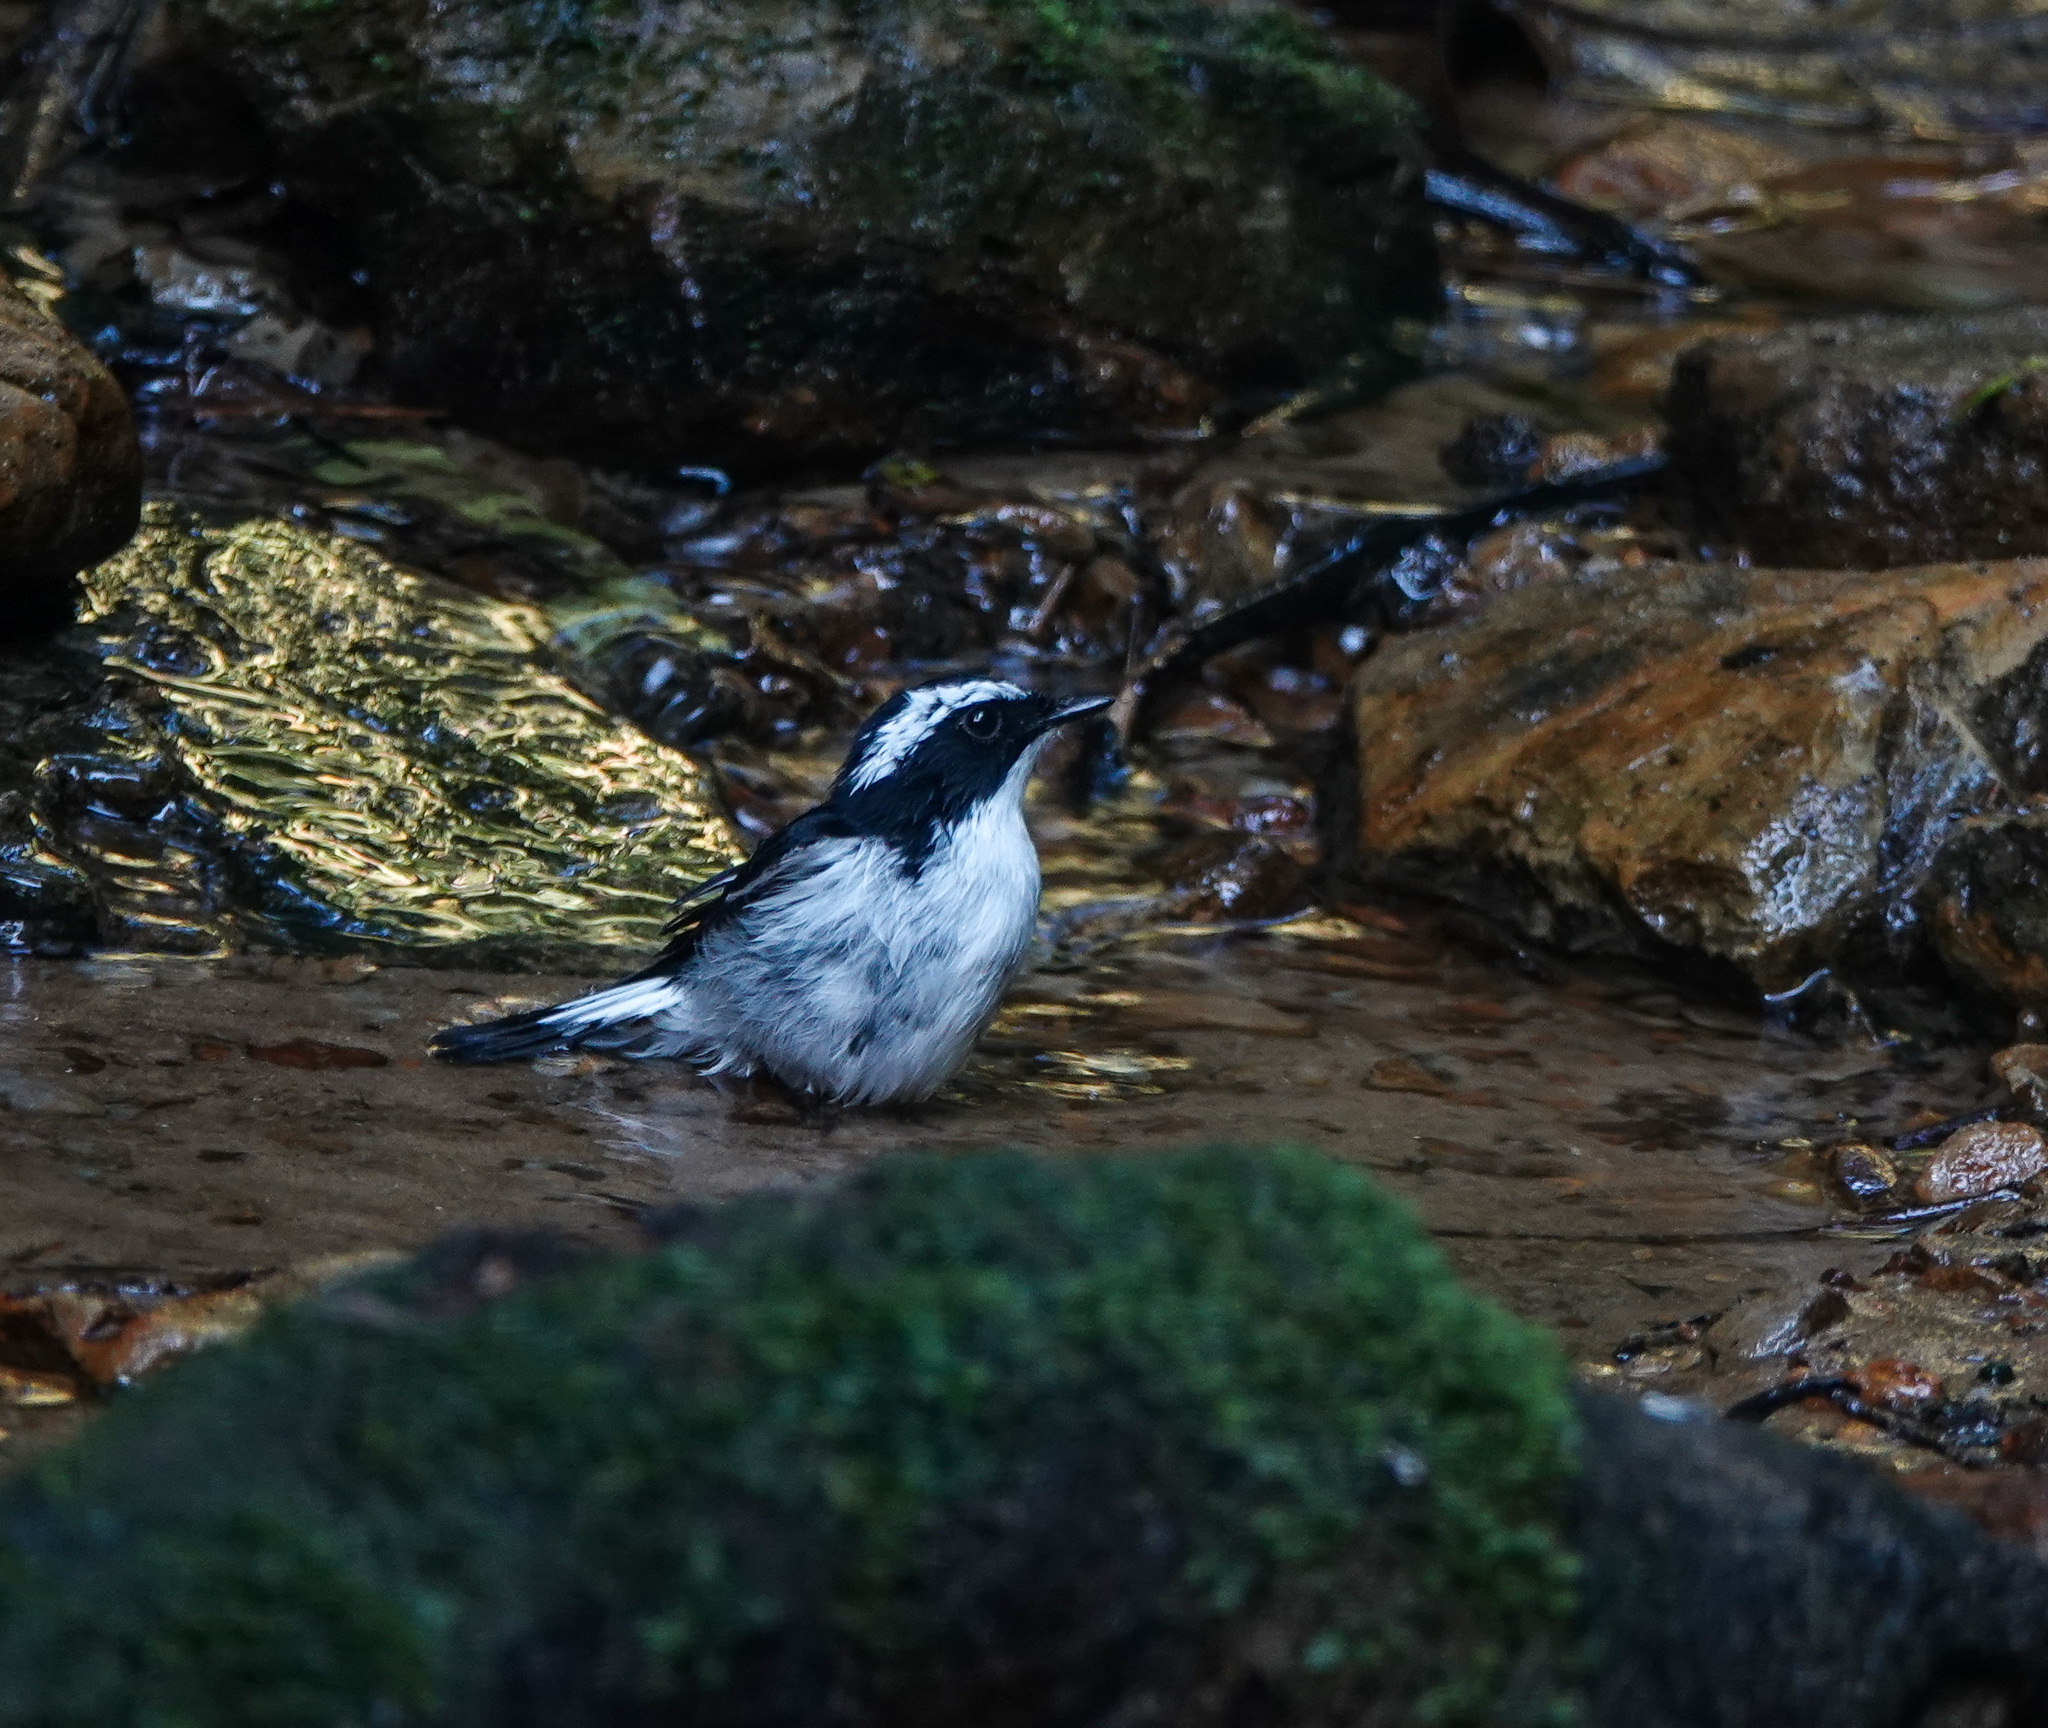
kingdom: Animalia
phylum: Chordata
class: Aves
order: Passeriformes
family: Muscicapidae
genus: Ficedula
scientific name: Ficedula westermanni
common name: Little pied flycatcher
